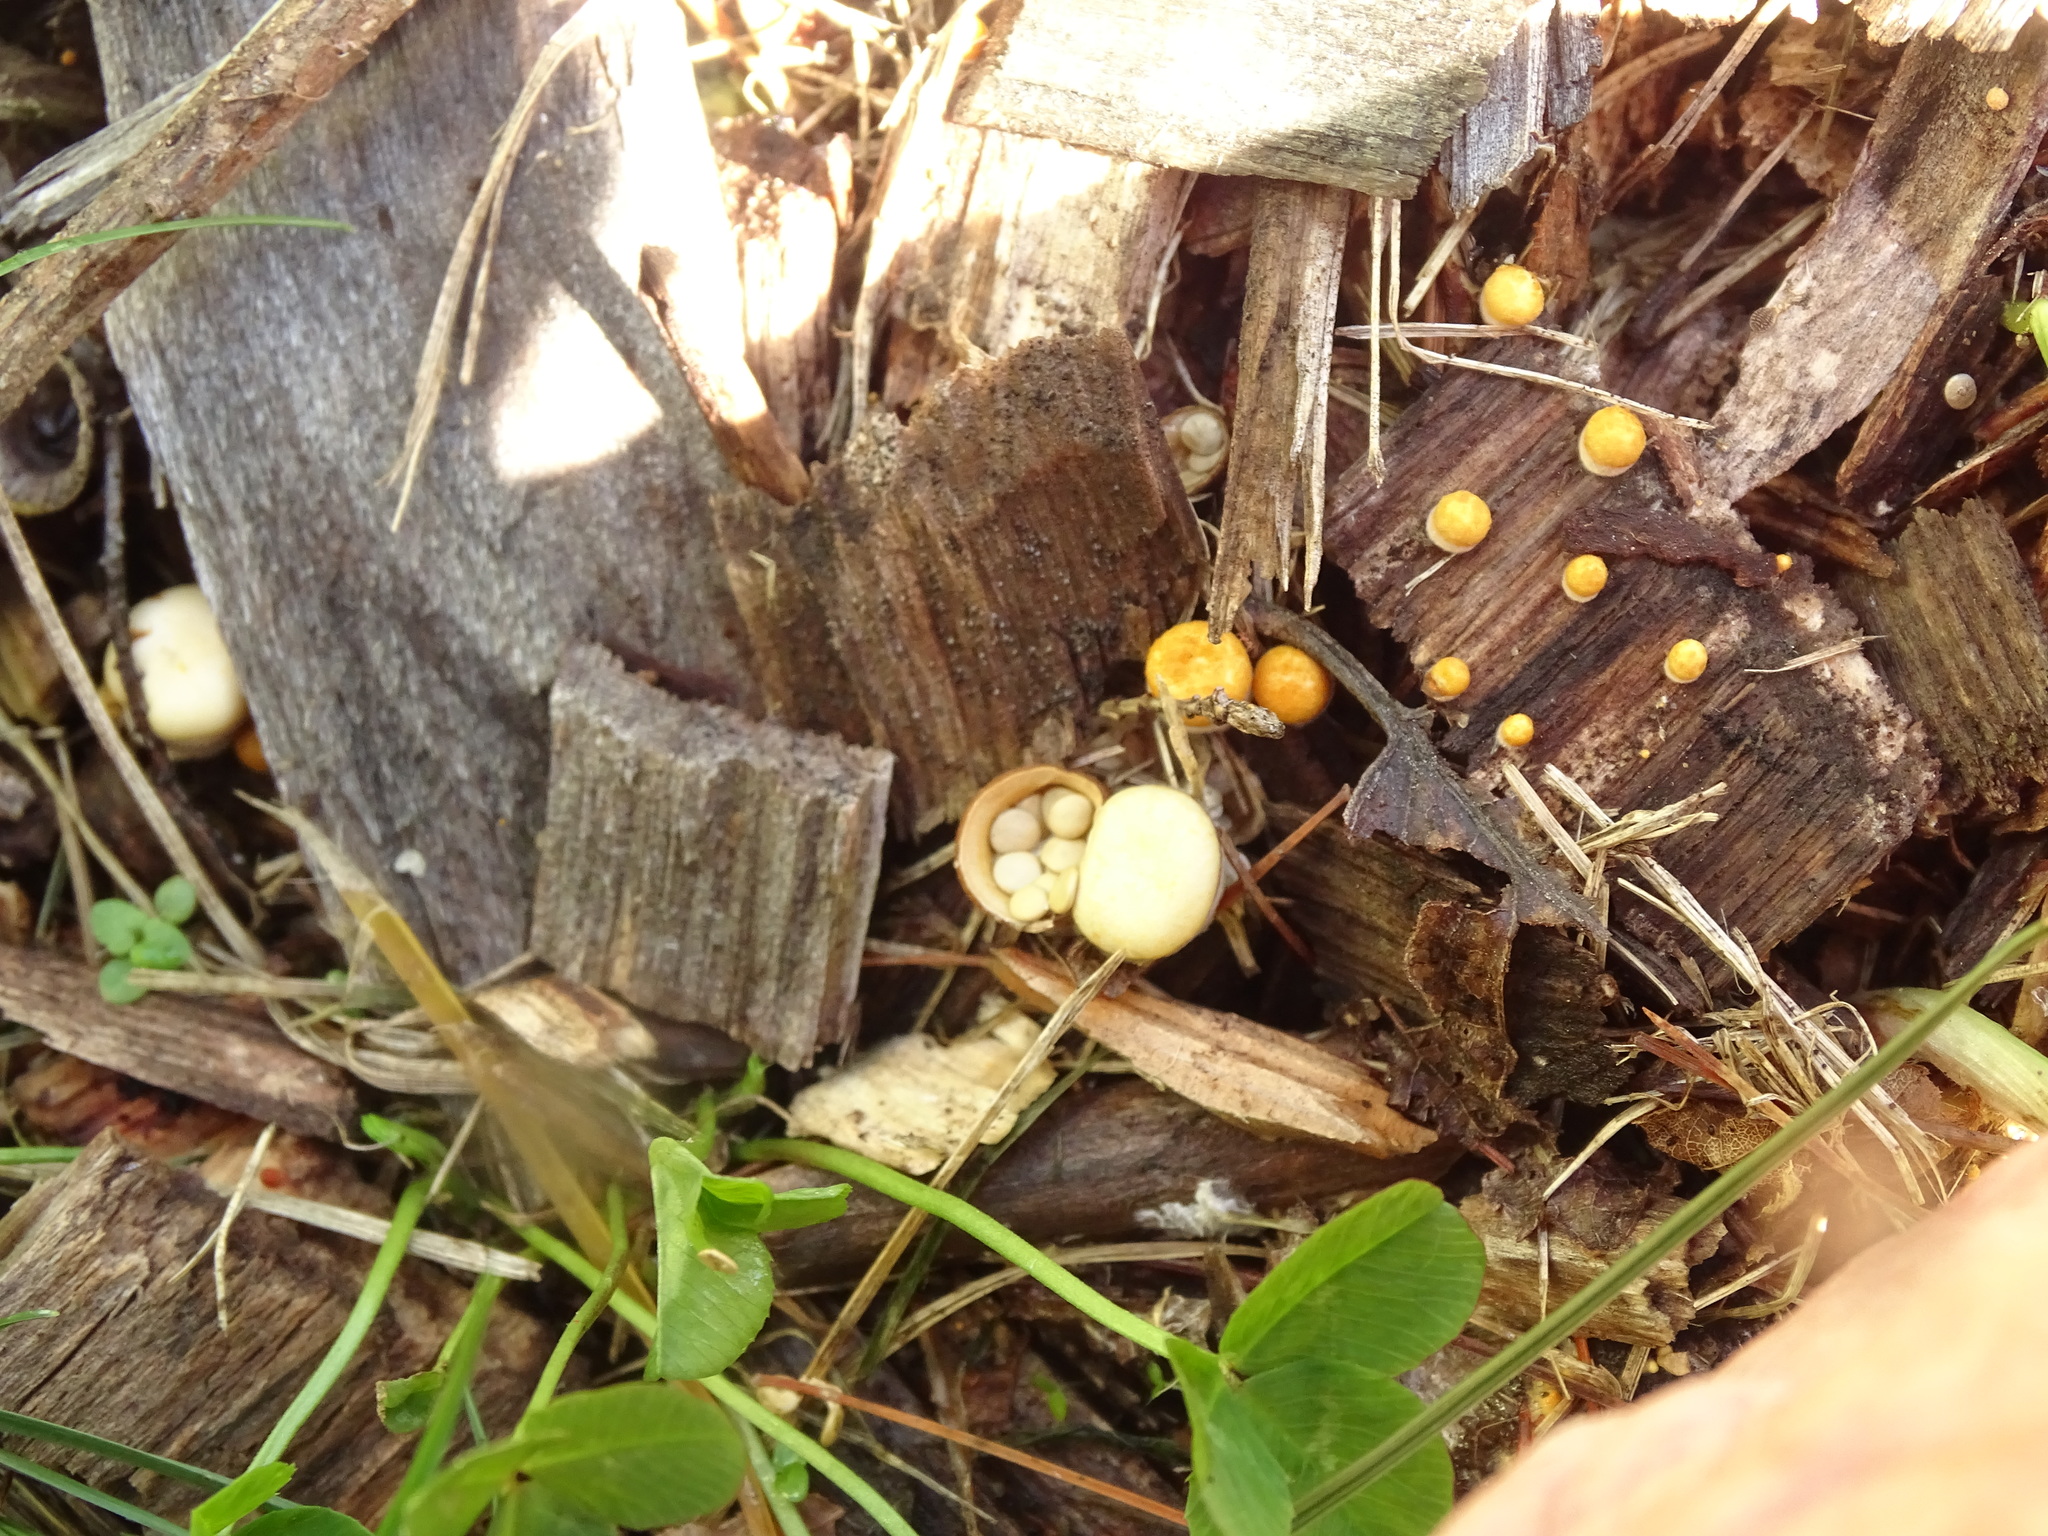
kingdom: Fungi
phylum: Basidiomycota
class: Agaricomycetes
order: Agaricales
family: Nidulariaceae
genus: Crucibulum
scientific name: Crucibulum laeve
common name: Common bird's nest
